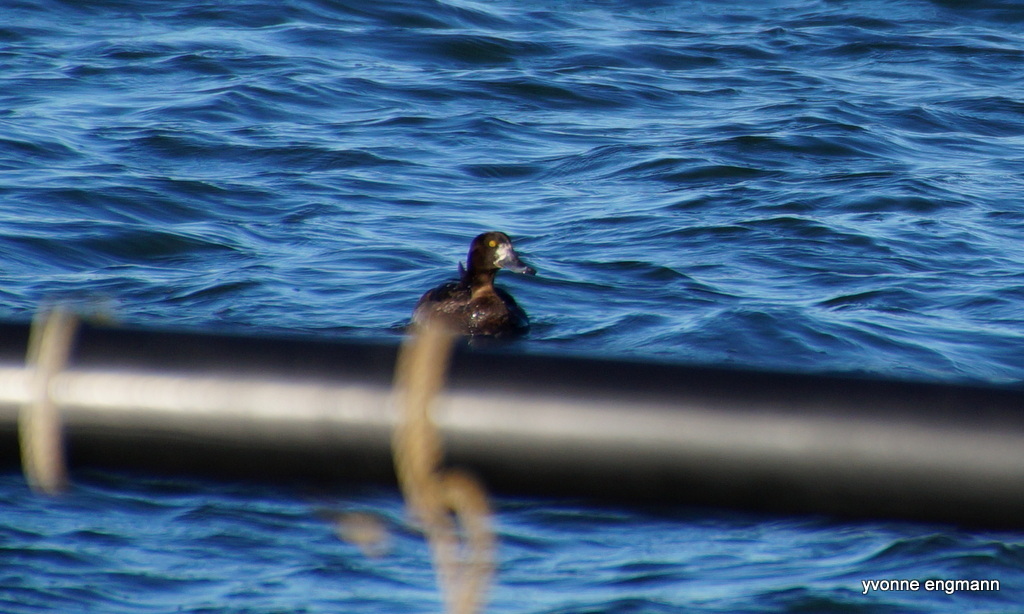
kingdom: Animalia
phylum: Chordata
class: Aves
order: Anseriformes
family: Anatidae
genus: Aythya
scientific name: Aythya marila
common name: Greater scaup
